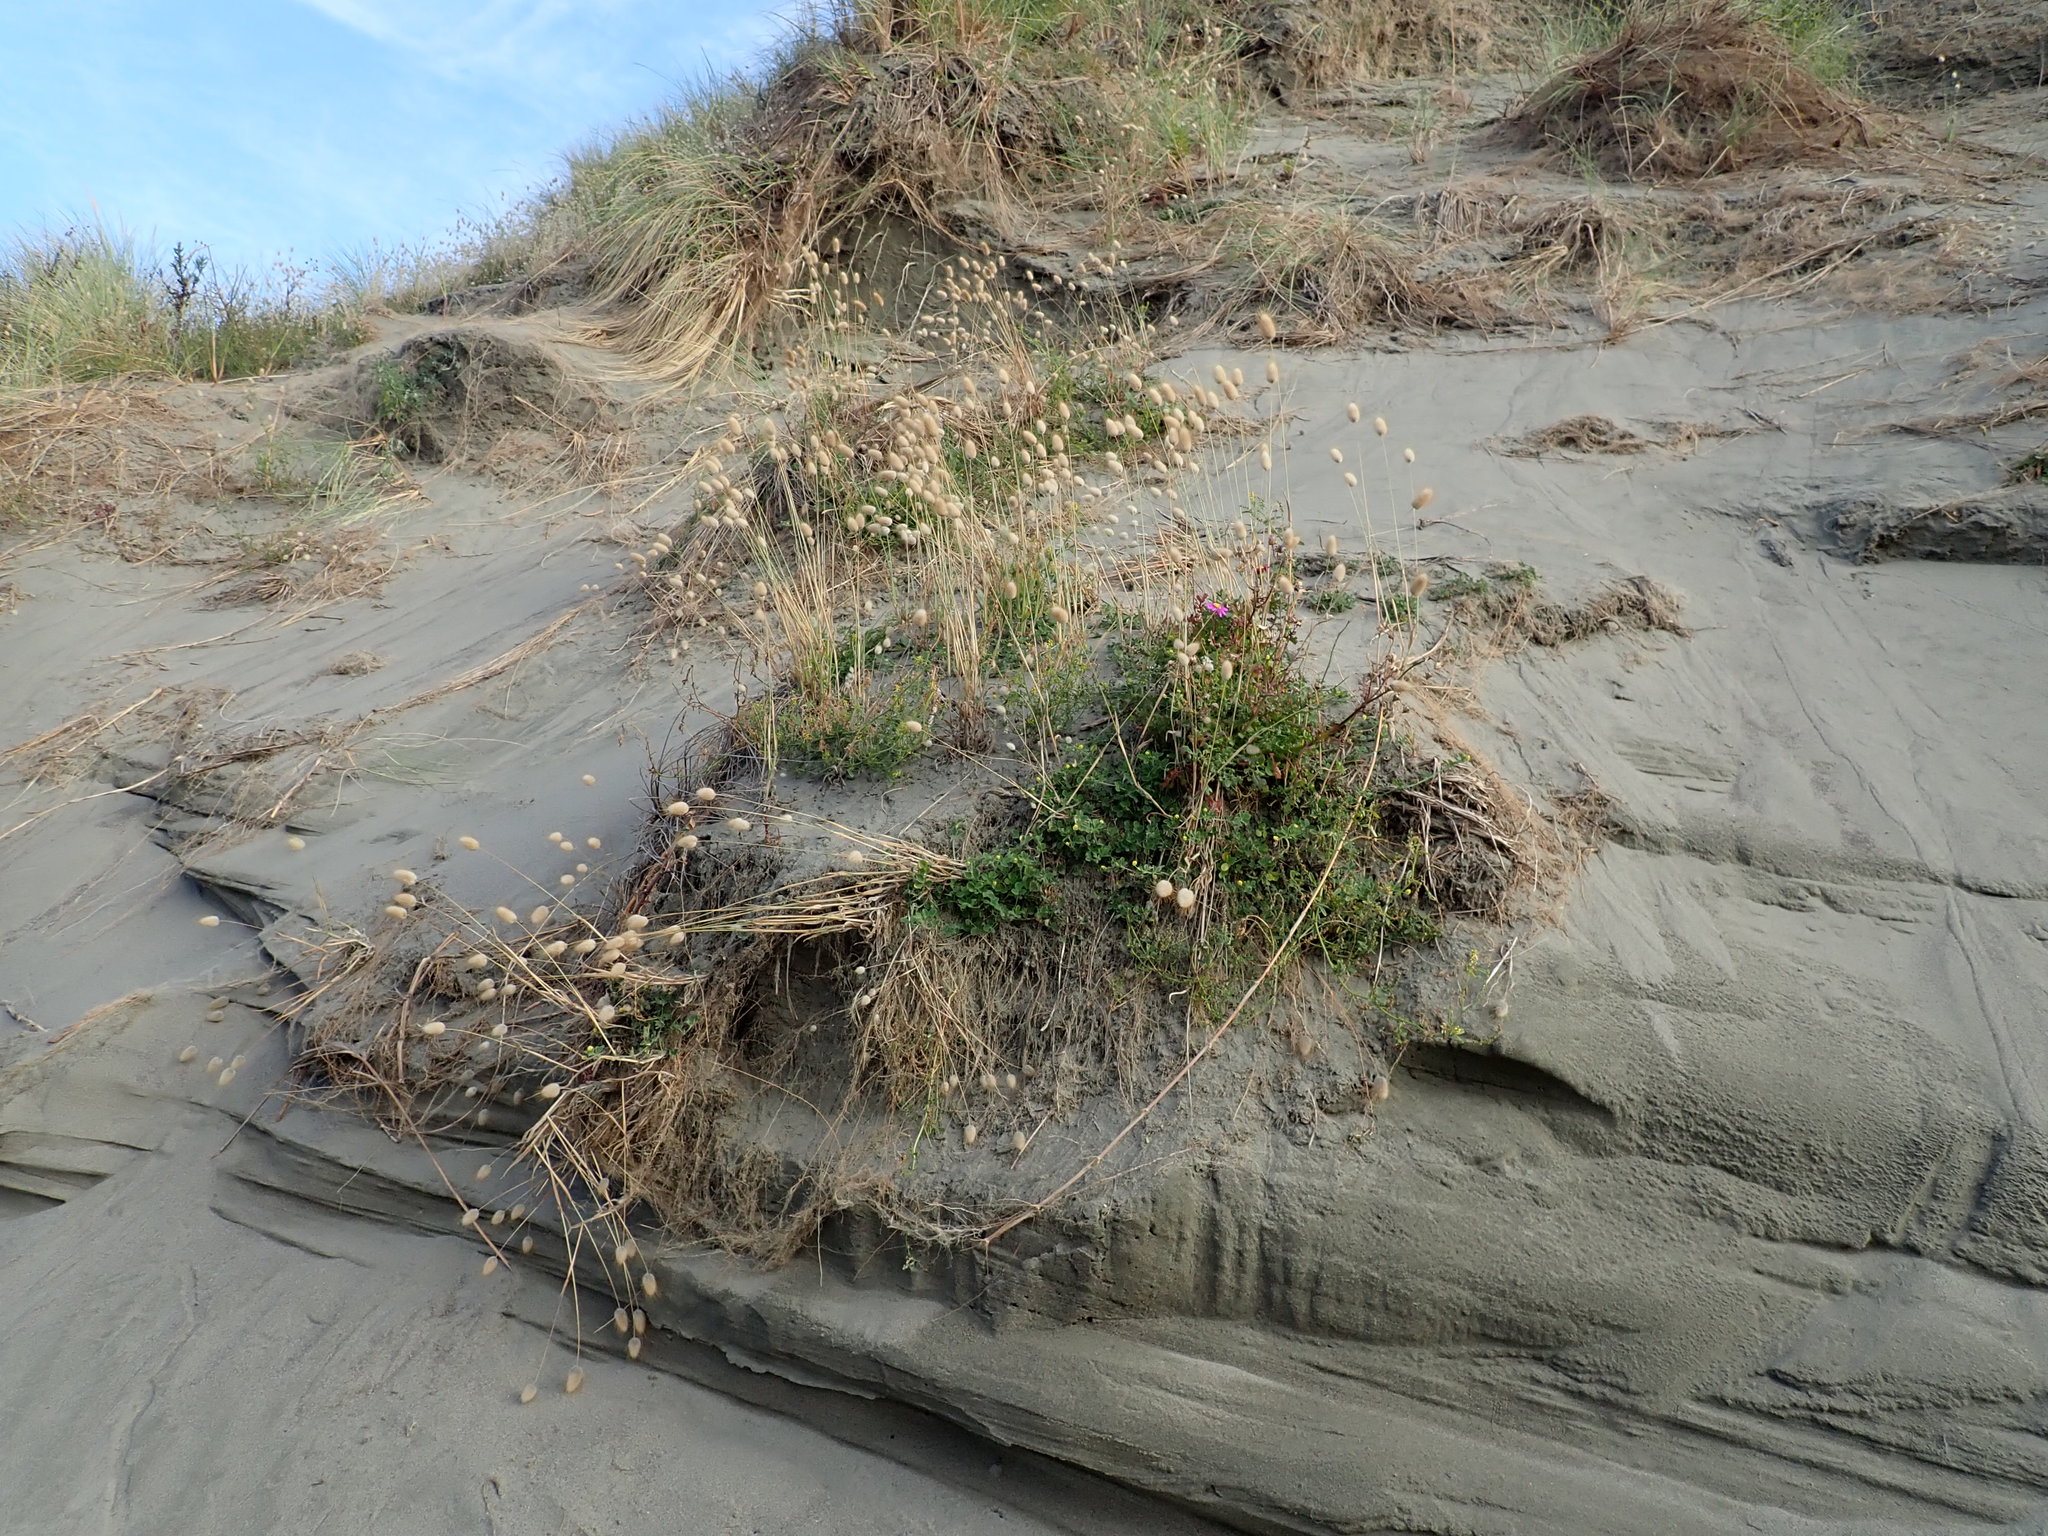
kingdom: Plantae
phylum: Tracheophyta
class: Liliopsida
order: Poales
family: Poaceae
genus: Lagurus
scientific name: Lagurus ovatus
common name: Hare's-tail
